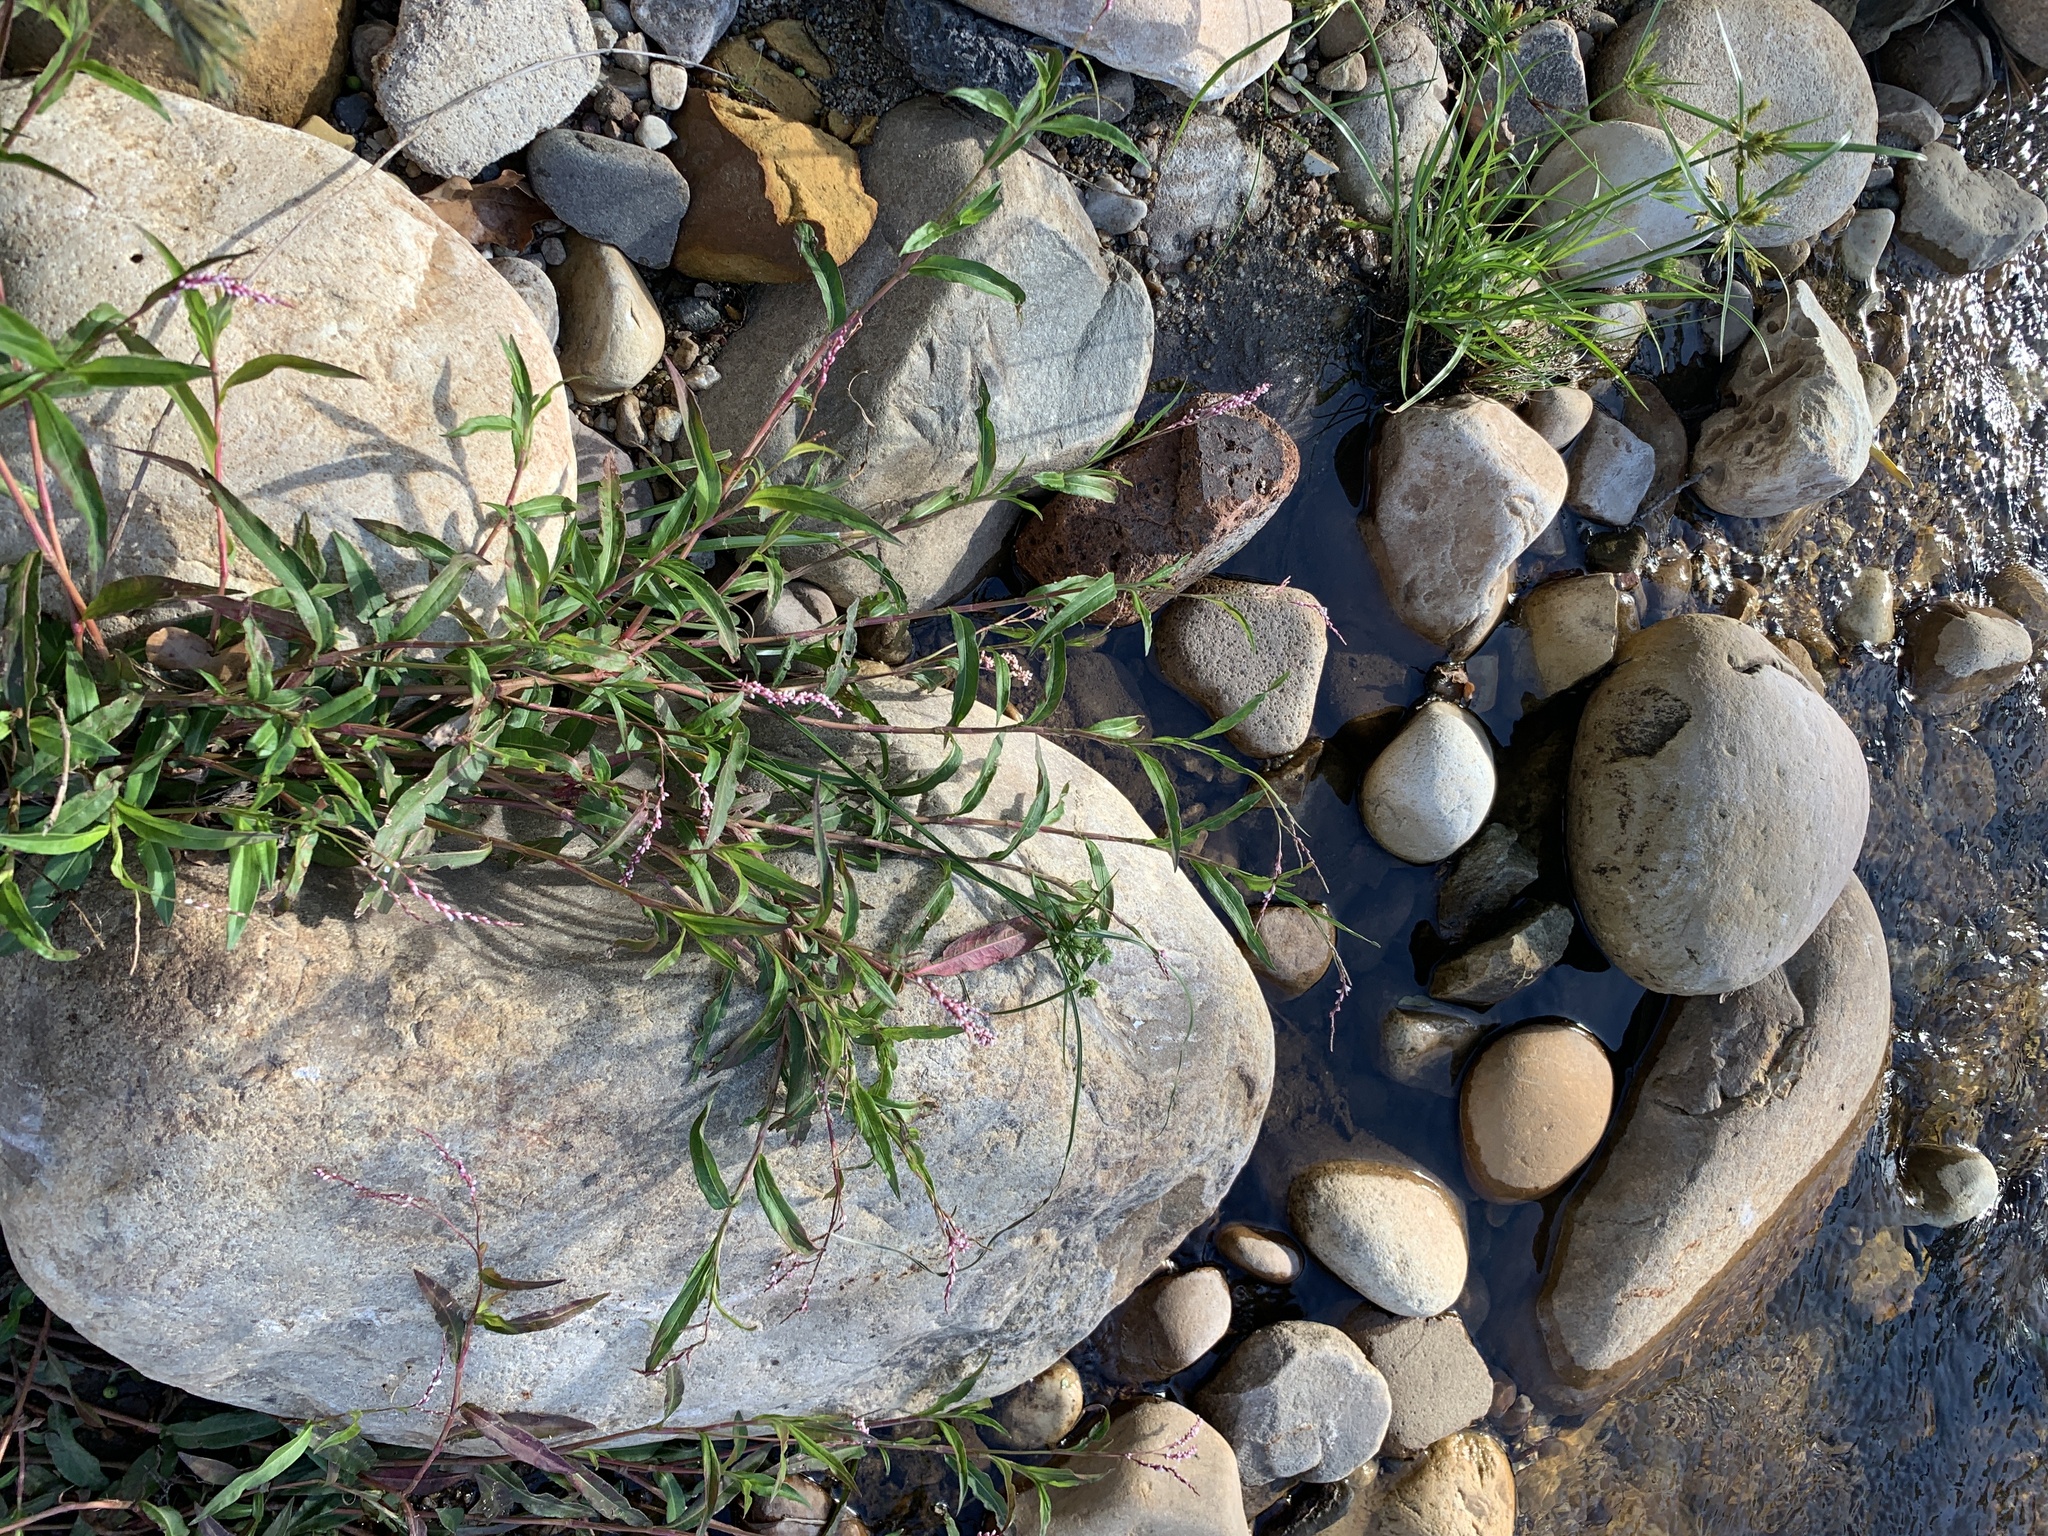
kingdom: Plantae
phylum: Tracheophyta
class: Magnoliopsida
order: Caryophyllales
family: Polygonaceae
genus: Persicaria
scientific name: Persicaria decipiens
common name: Willow-weed
